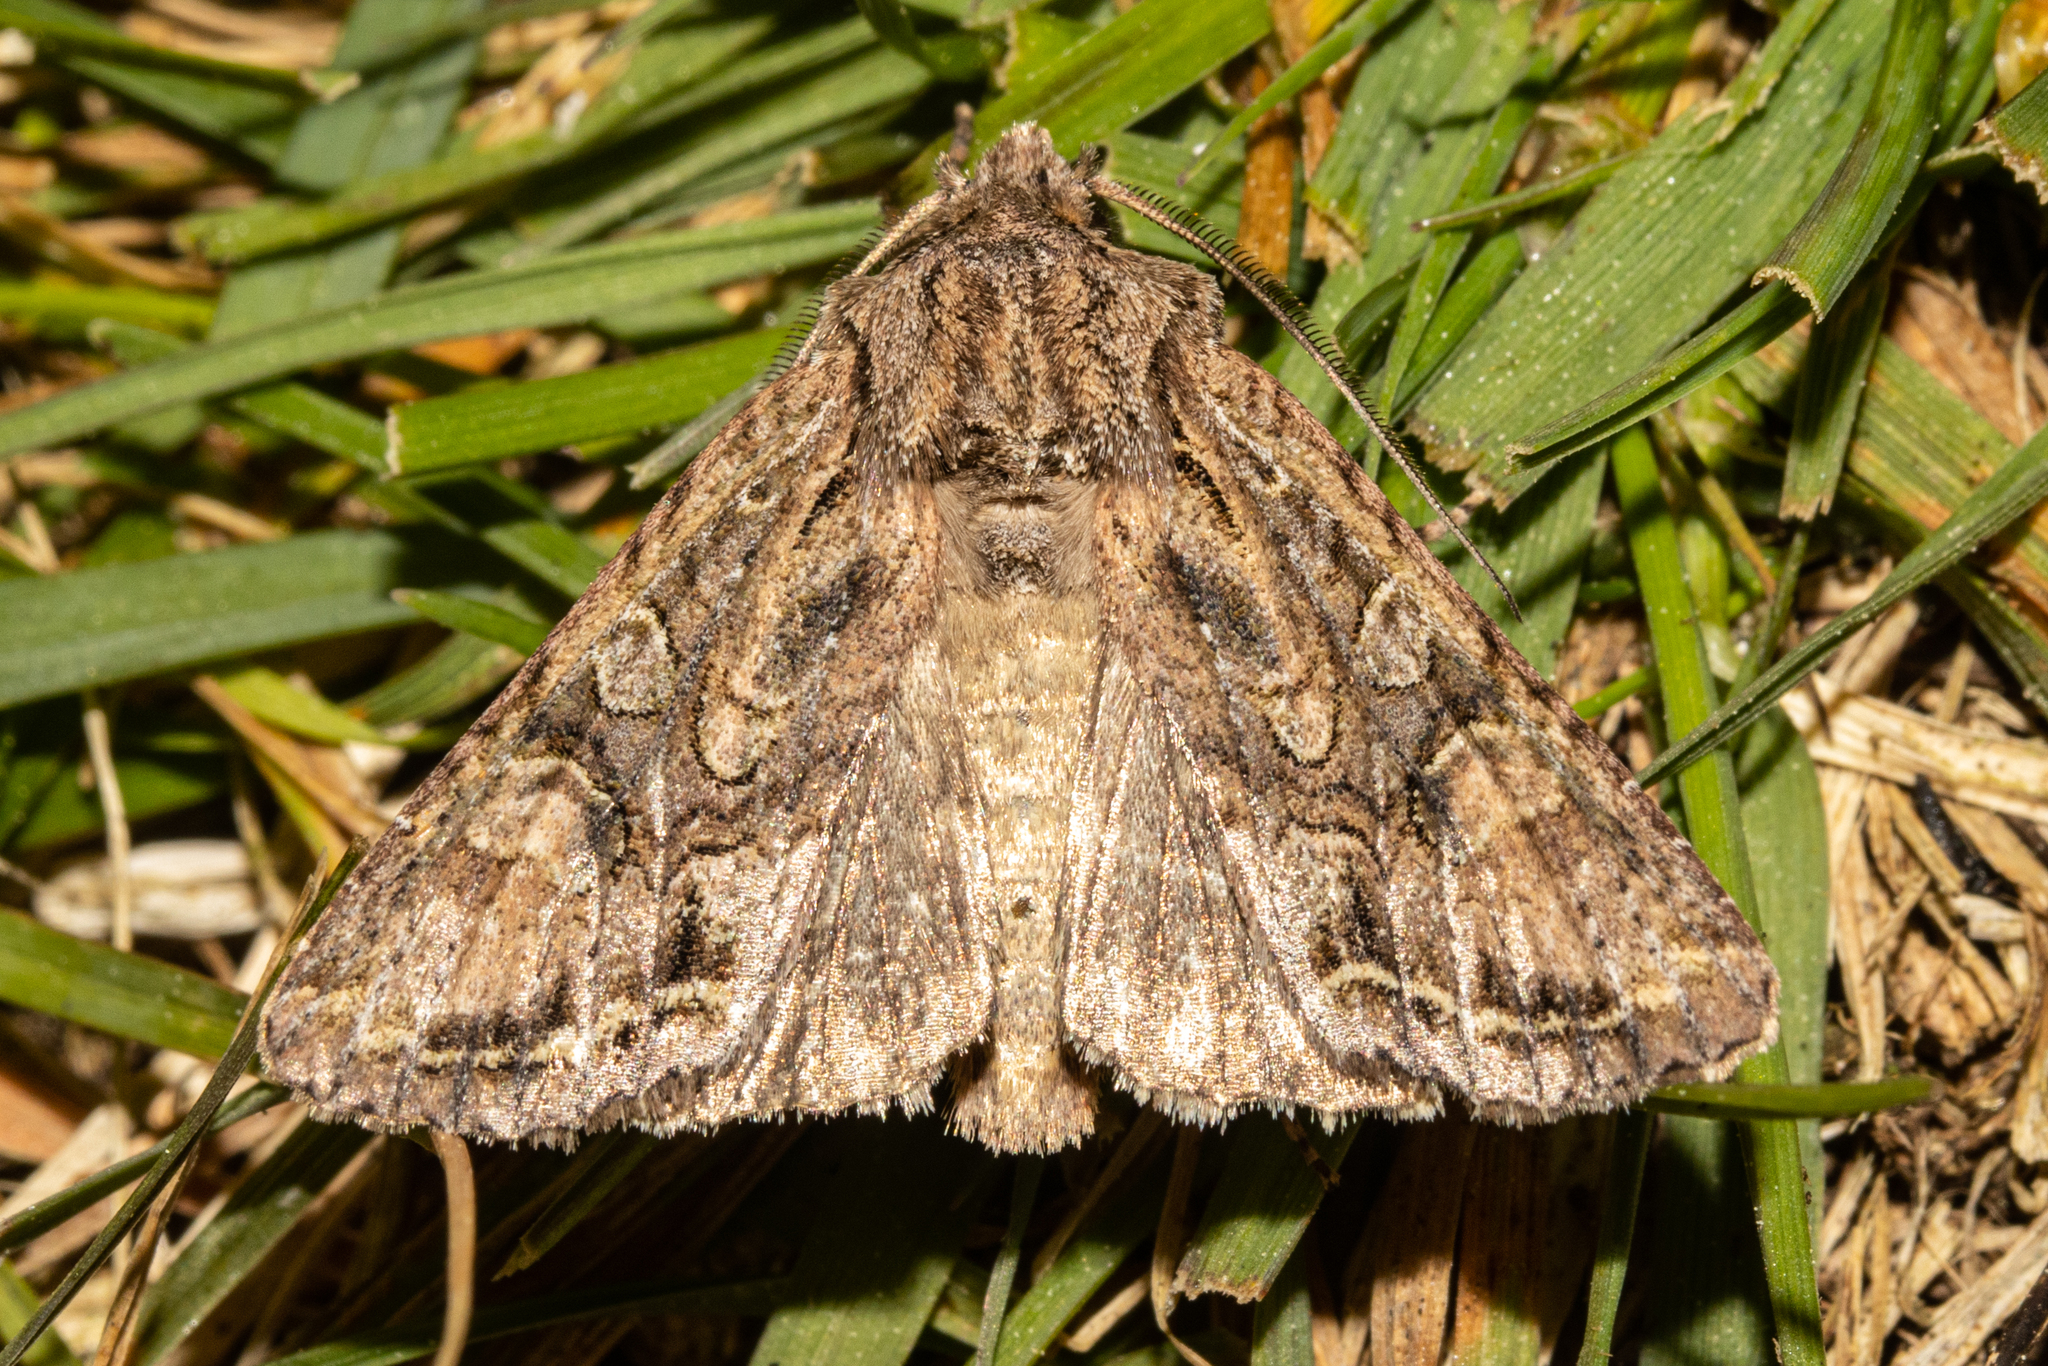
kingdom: Animalia
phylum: Arthropoda
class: Insecta
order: Lepidoptera
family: Noctuidae
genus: Ichneutica
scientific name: Ichneutica mutans
